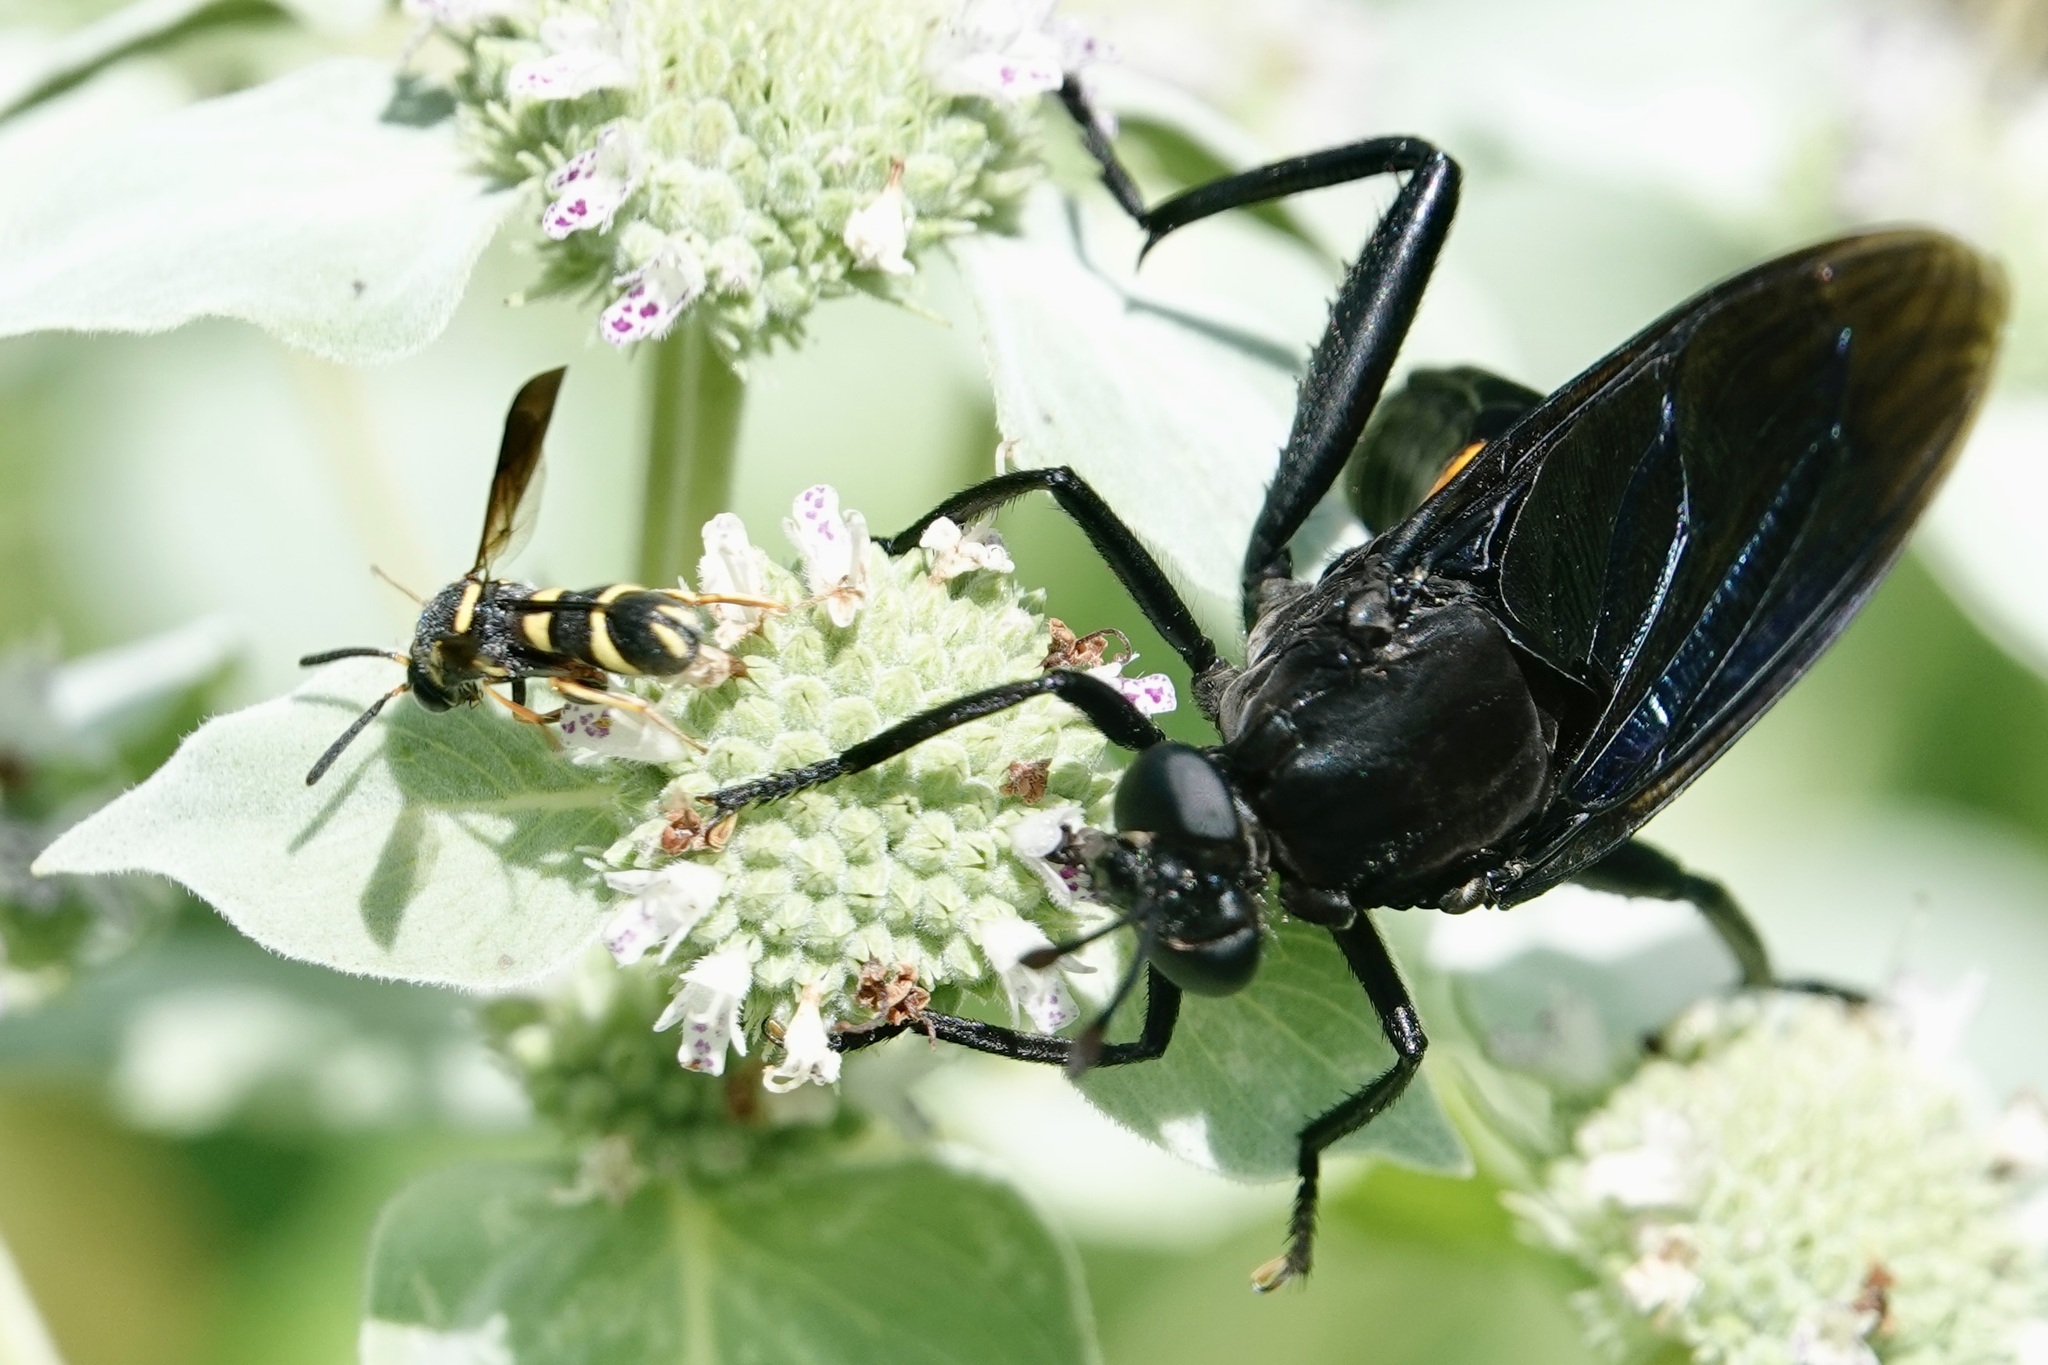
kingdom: Animalia
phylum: Arthropoda
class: Insecta
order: Hymenoptera
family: Leucospidae
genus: Leucospis
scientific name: Leucospis affinis
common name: Wasp
